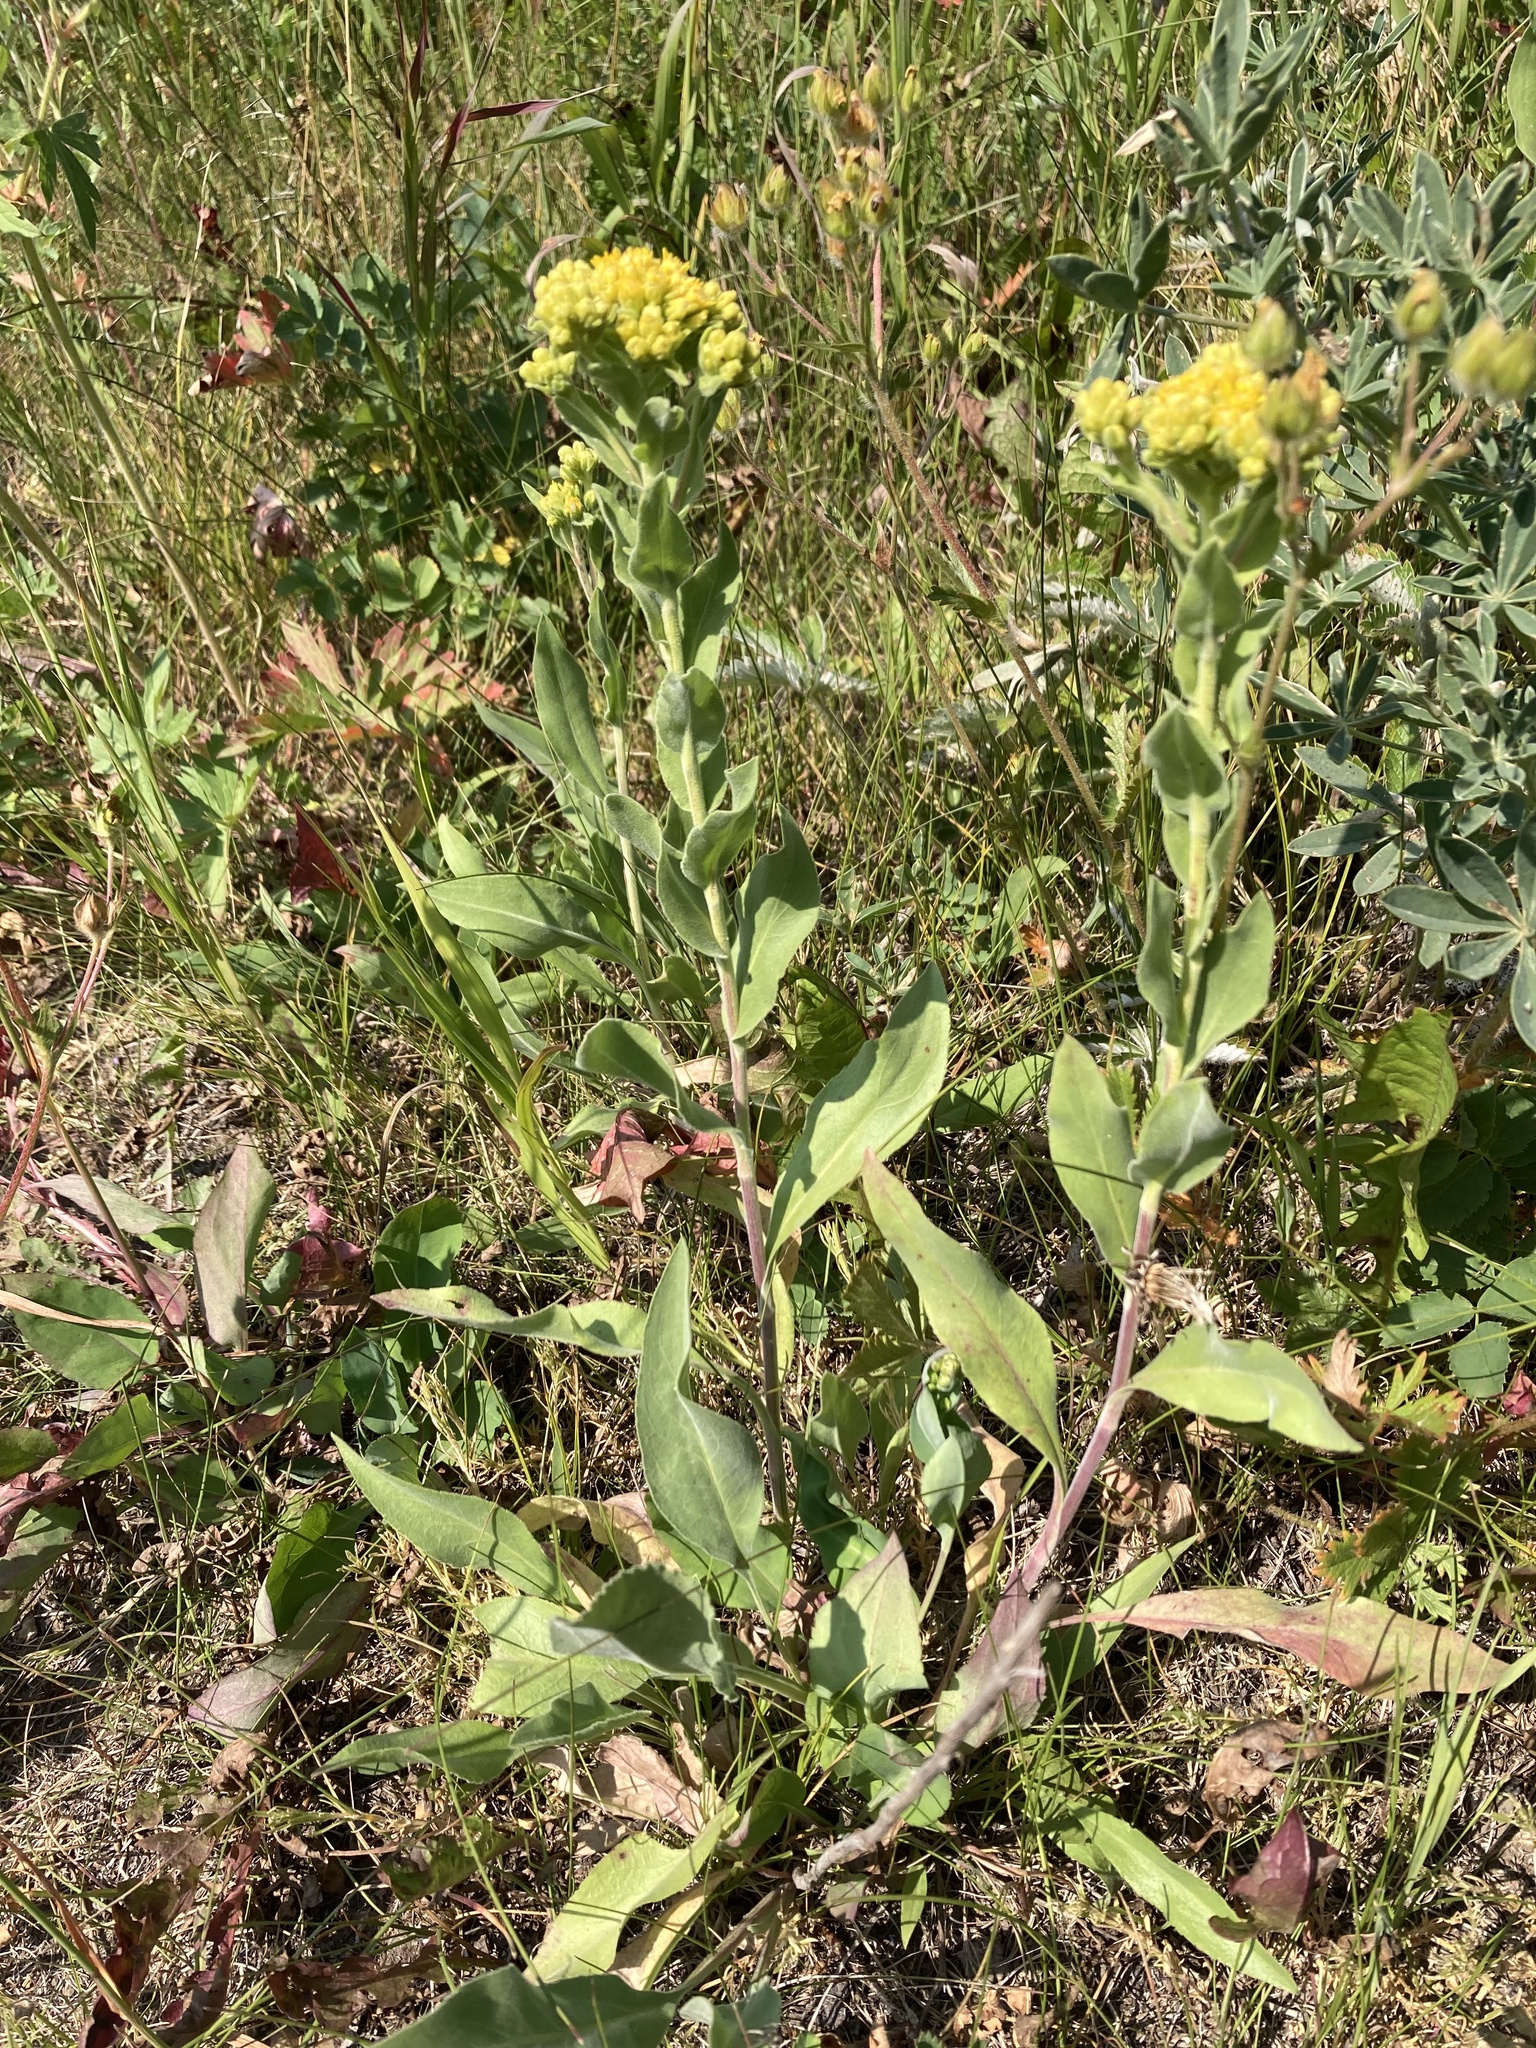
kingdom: Plantae
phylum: Tracheophyta
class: Magnoliopsida
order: Asterales
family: Asteraceae
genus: Solidago
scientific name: Solidago rigida
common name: Rigid goldenrod
